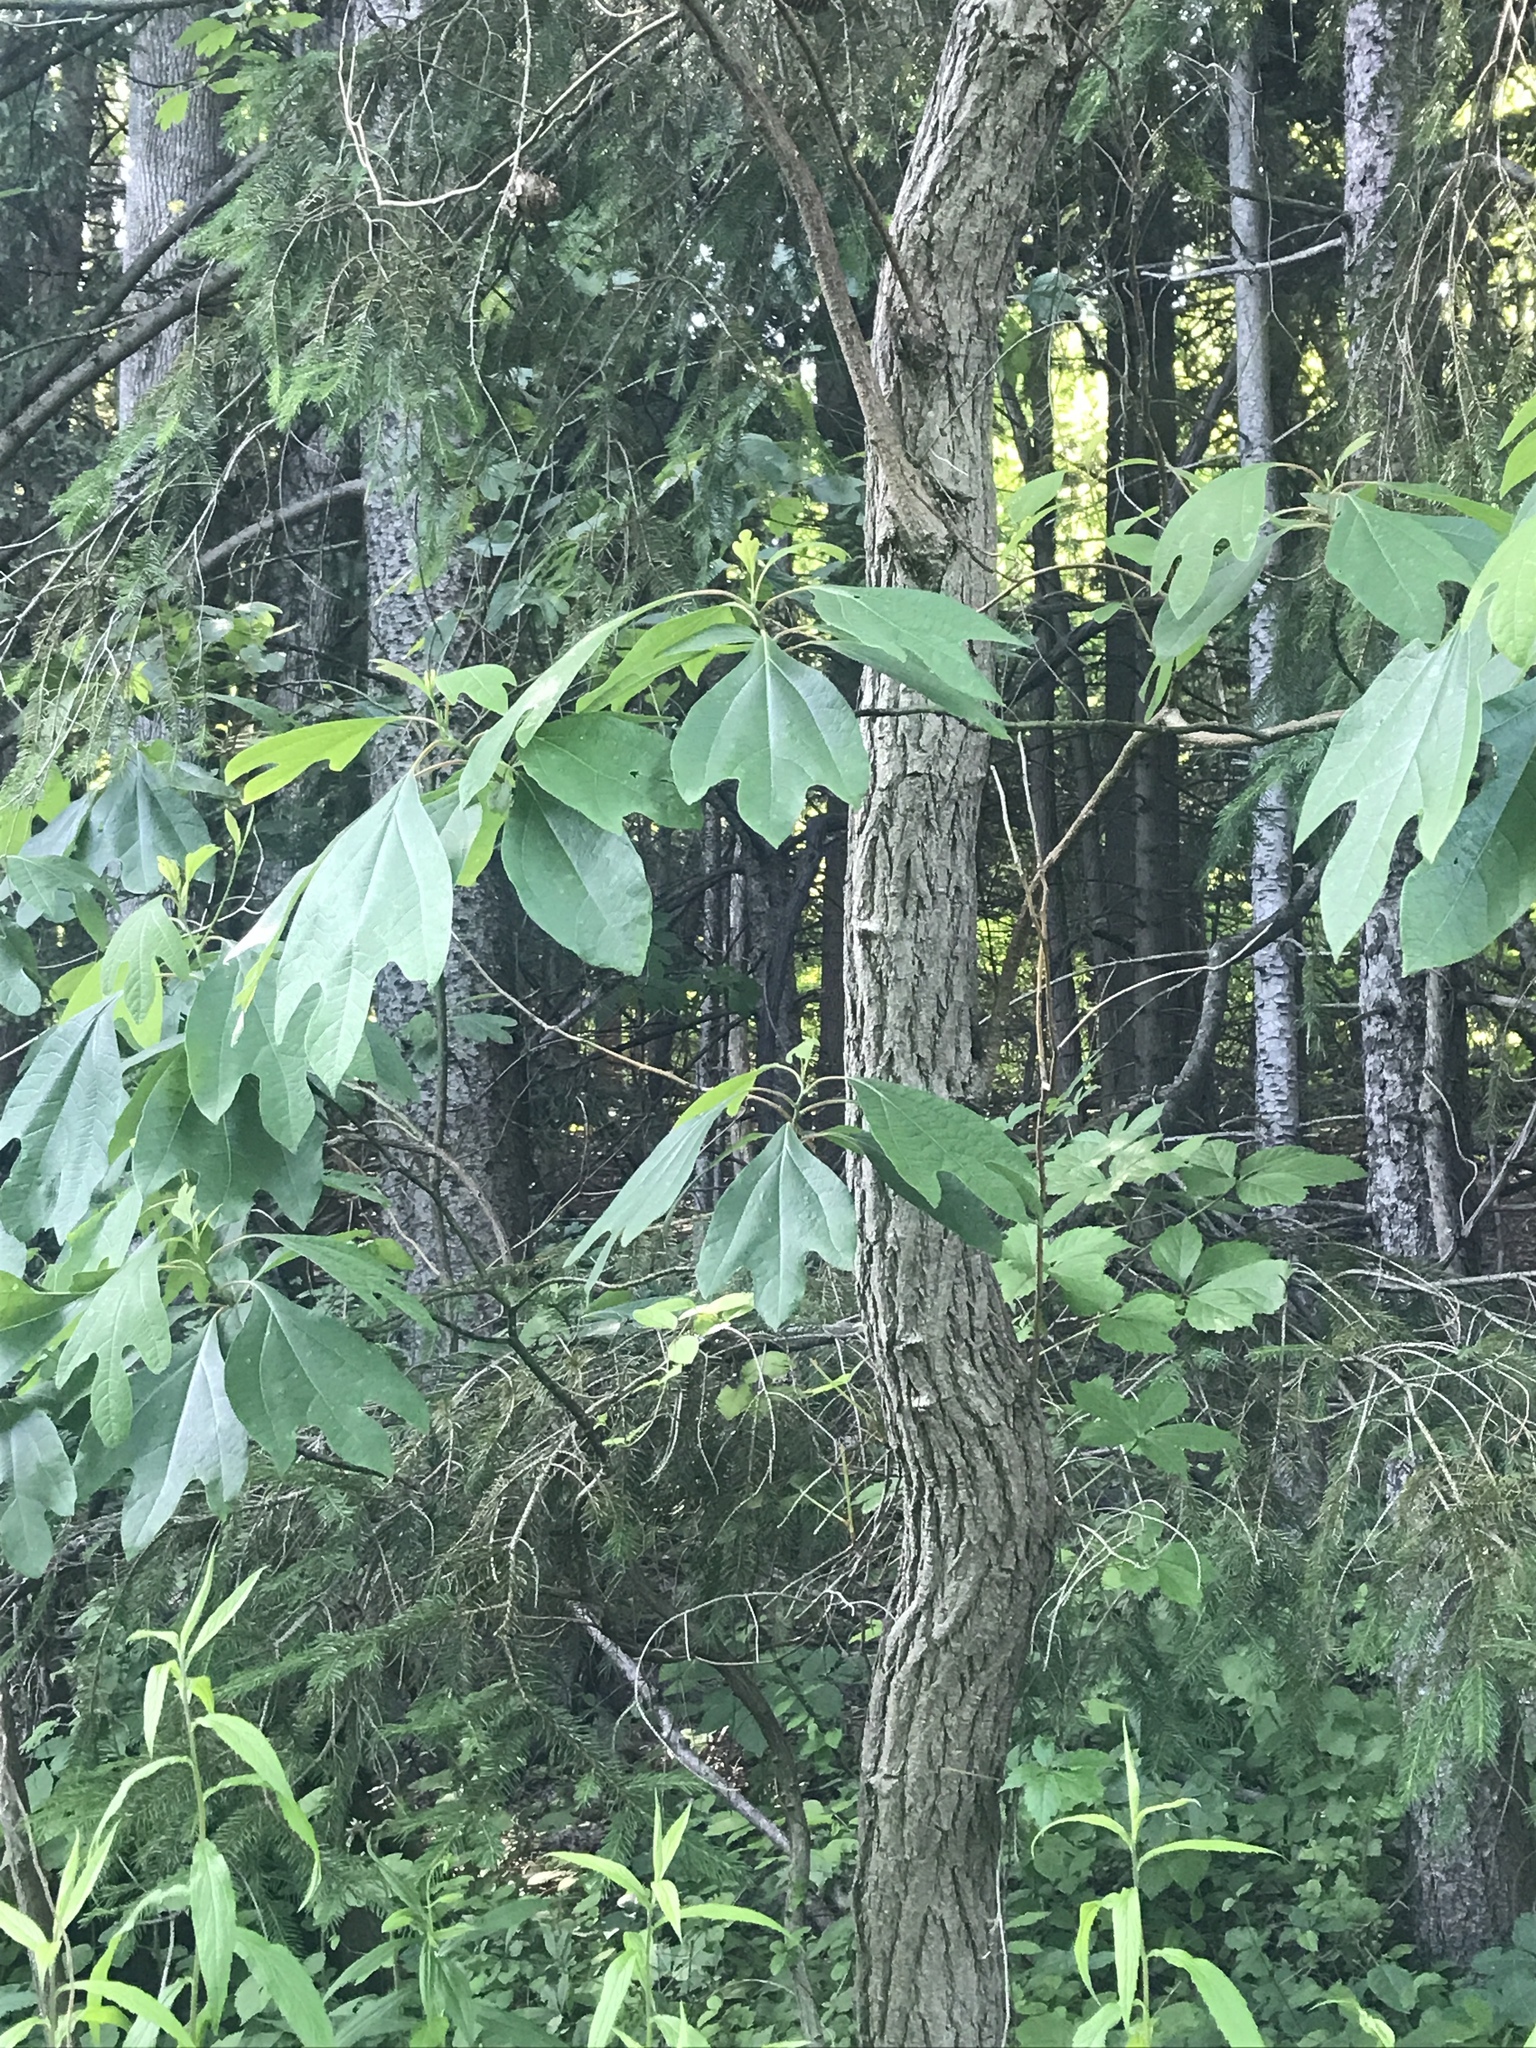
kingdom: Plantae
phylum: Tracheophyta
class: Magnoliopsida
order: Laurales
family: Lauraceae
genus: Sassafras
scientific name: Sassafras albidum
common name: Sassafras
